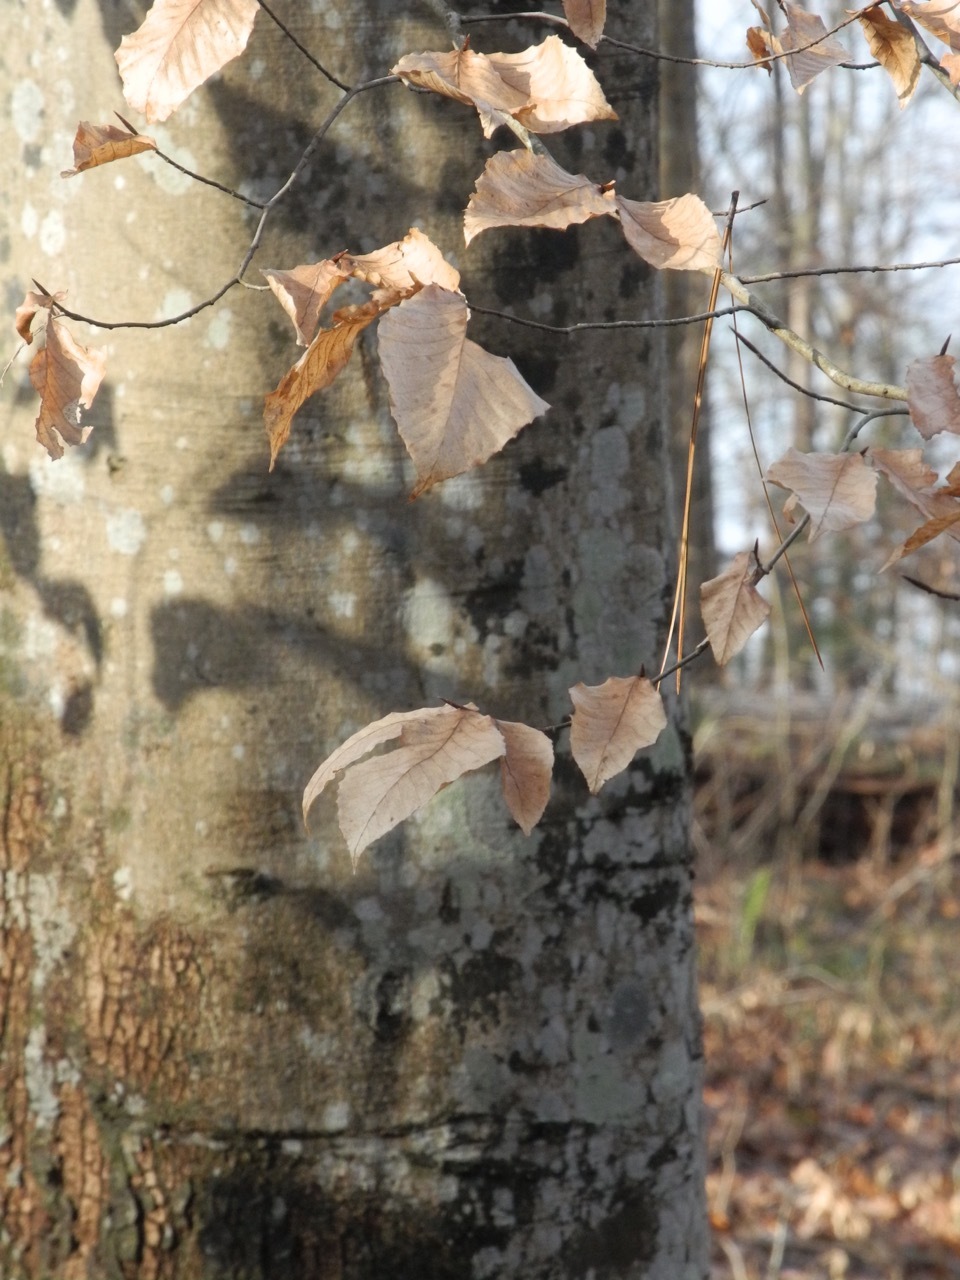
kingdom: Plantae
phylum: Tracheophyta
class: Magnoliopsida
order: Fagales
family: Fagaceae
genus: Fagus
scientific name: Fagus grandifolia
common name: American beech
